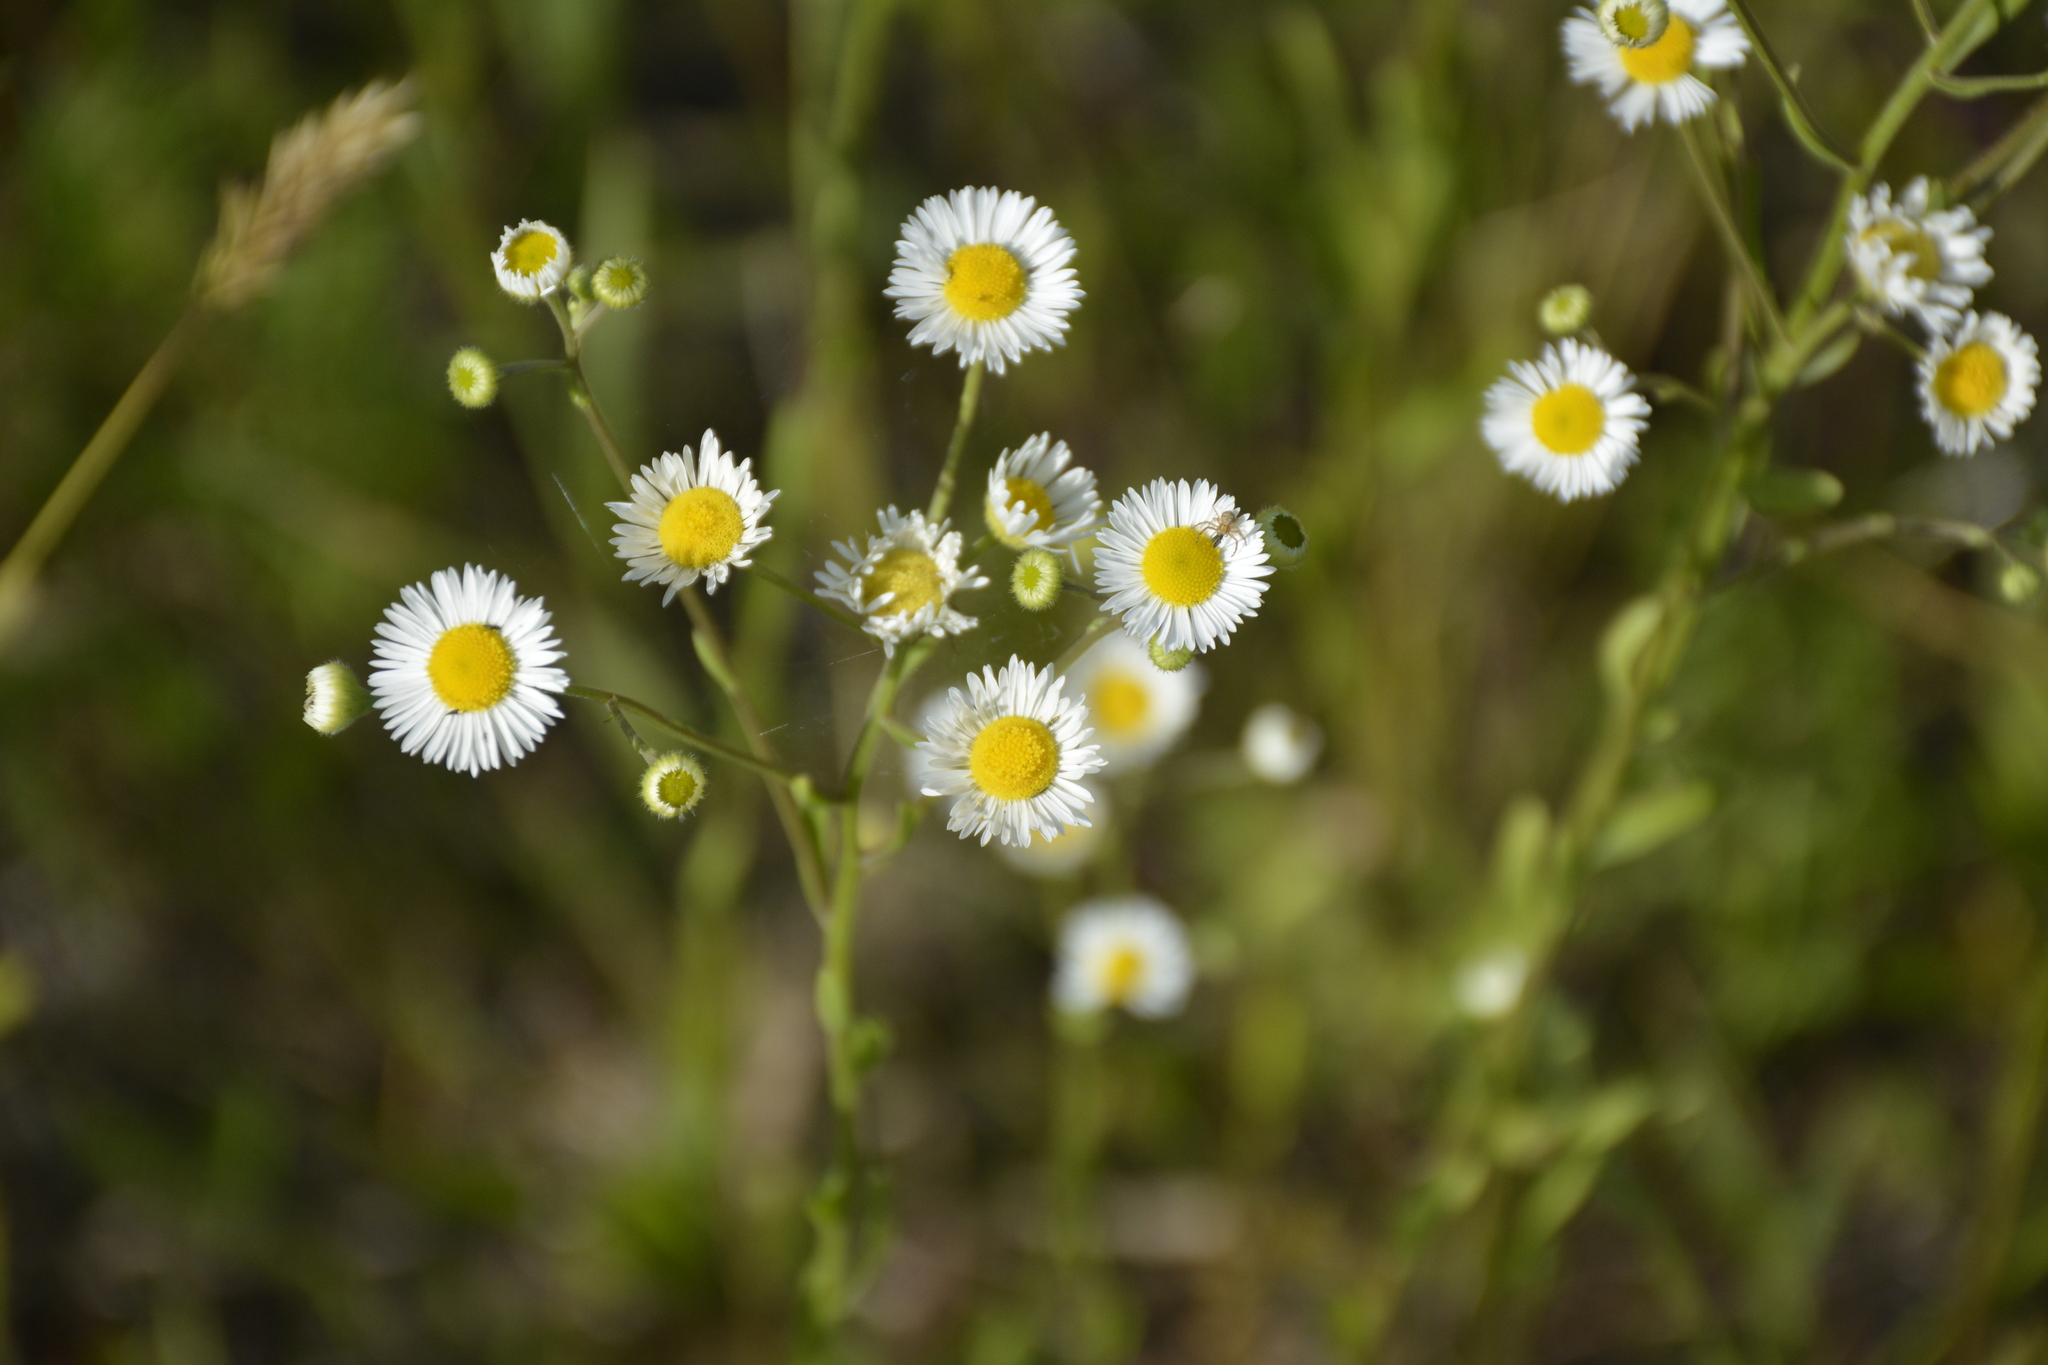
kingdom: Plantae
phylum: Tracheophyta
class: Magnoliopsida
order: Asterales
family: Asteraceae
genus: Erigeron
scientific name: Erigeron strigosus
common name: Common eastern fleabane
